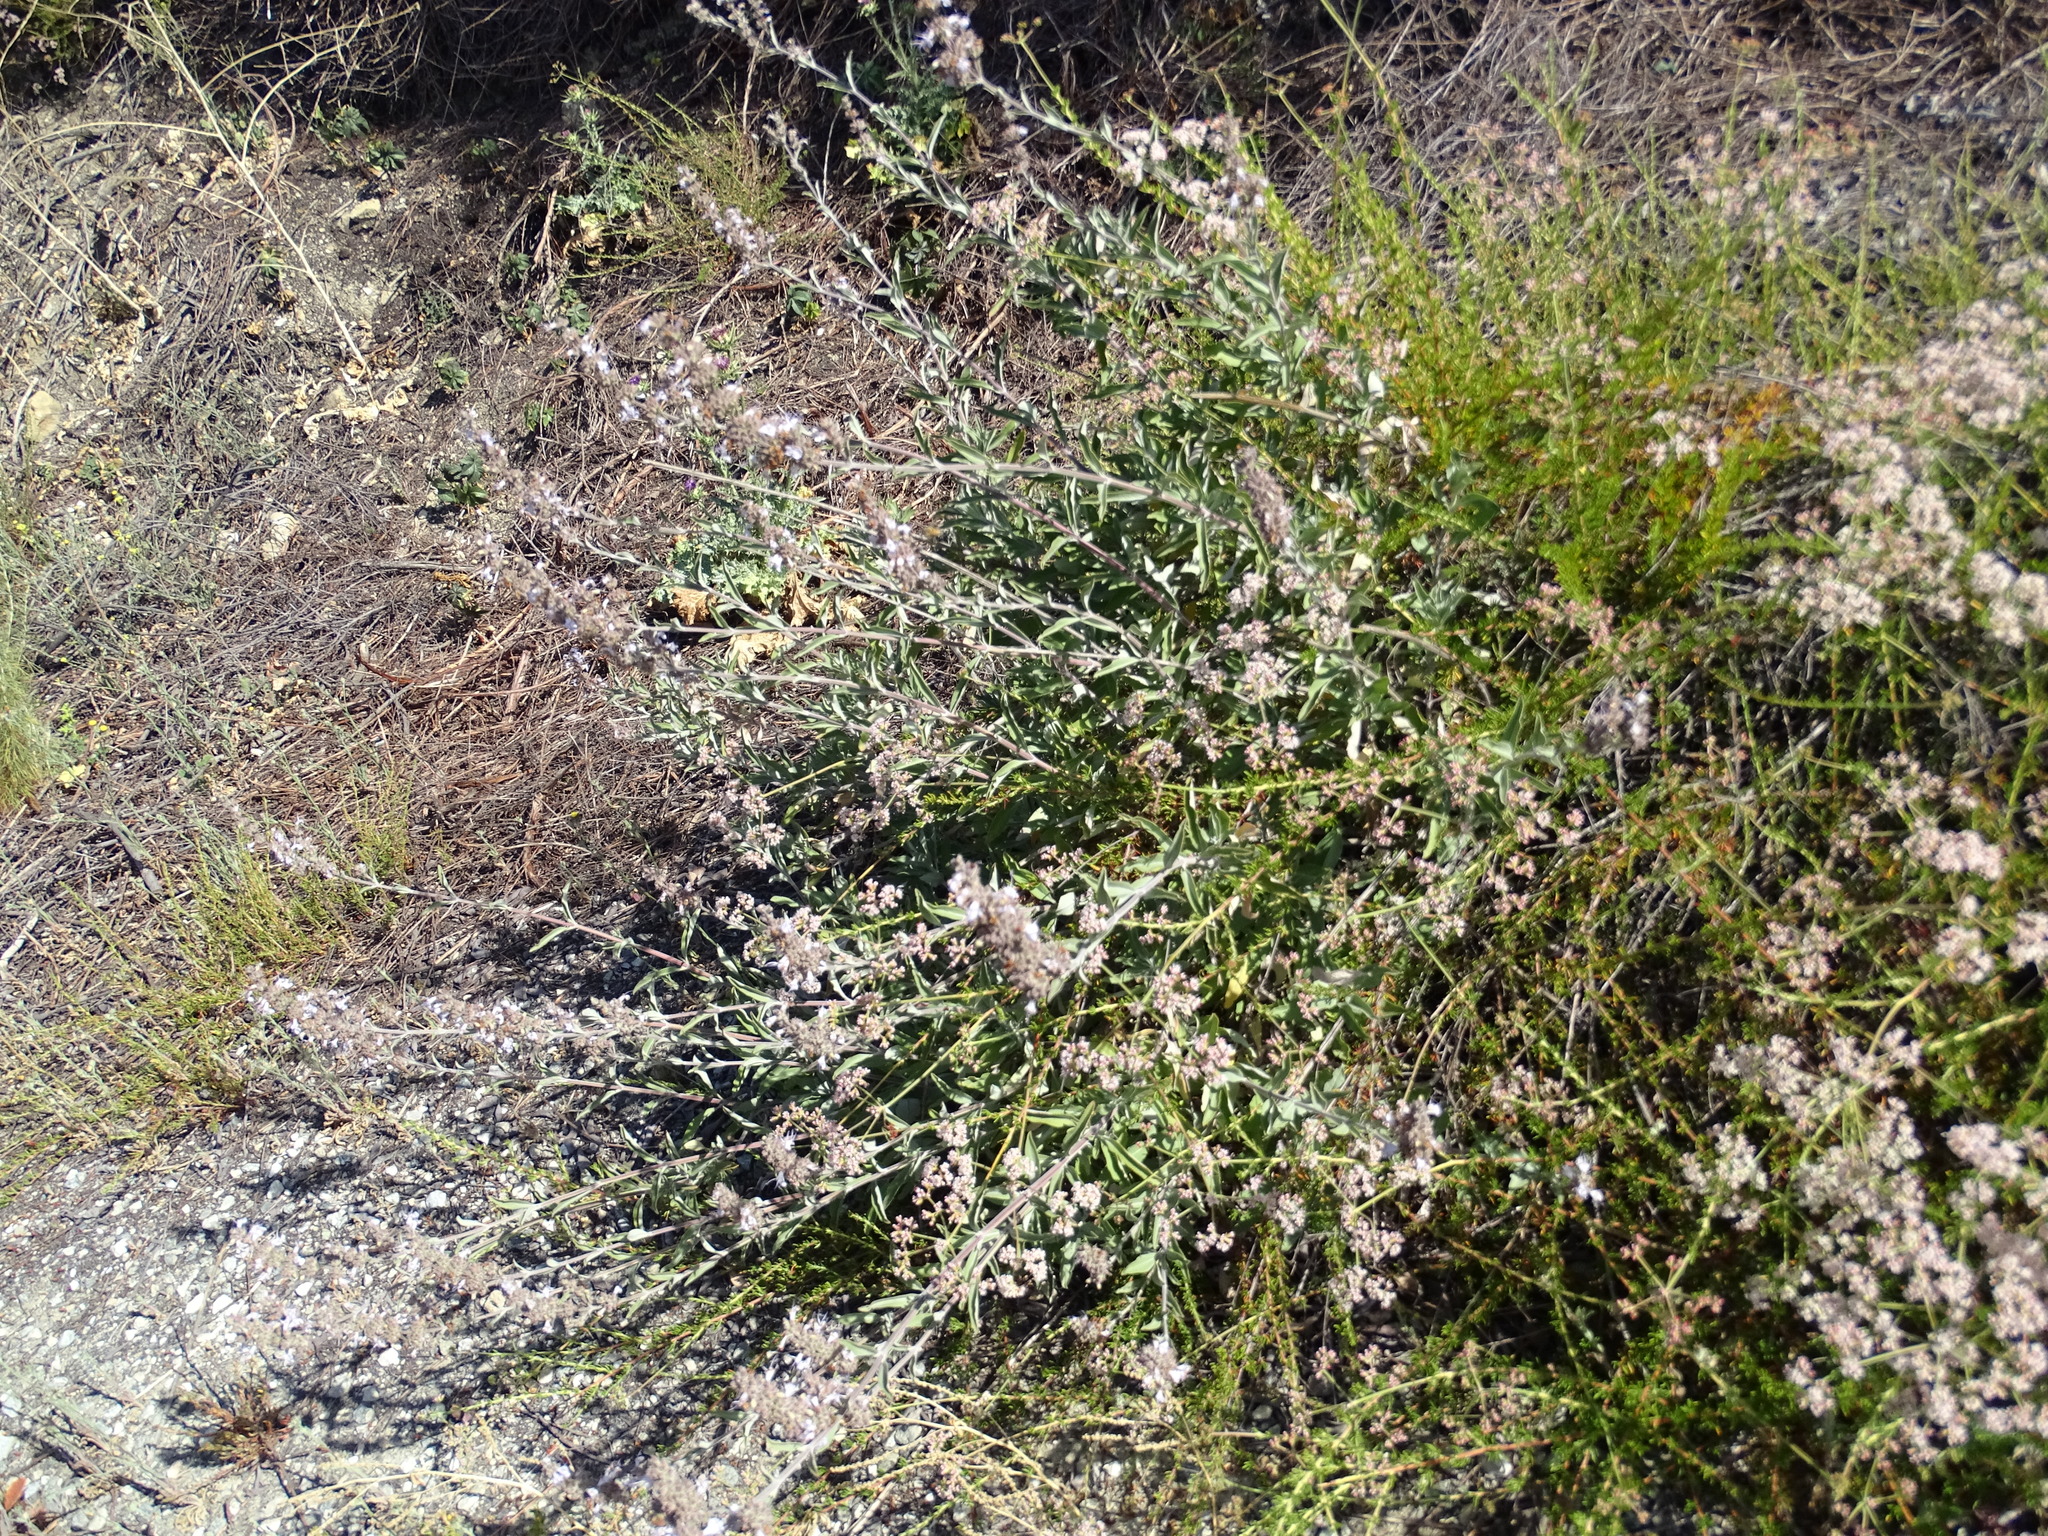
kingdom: Plantae
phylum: Tracheophyta
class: Magnoliopsida
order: Lamiales
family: Lamiaceae
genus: Salvia
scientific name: Salvia mellifera
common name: Black sage
